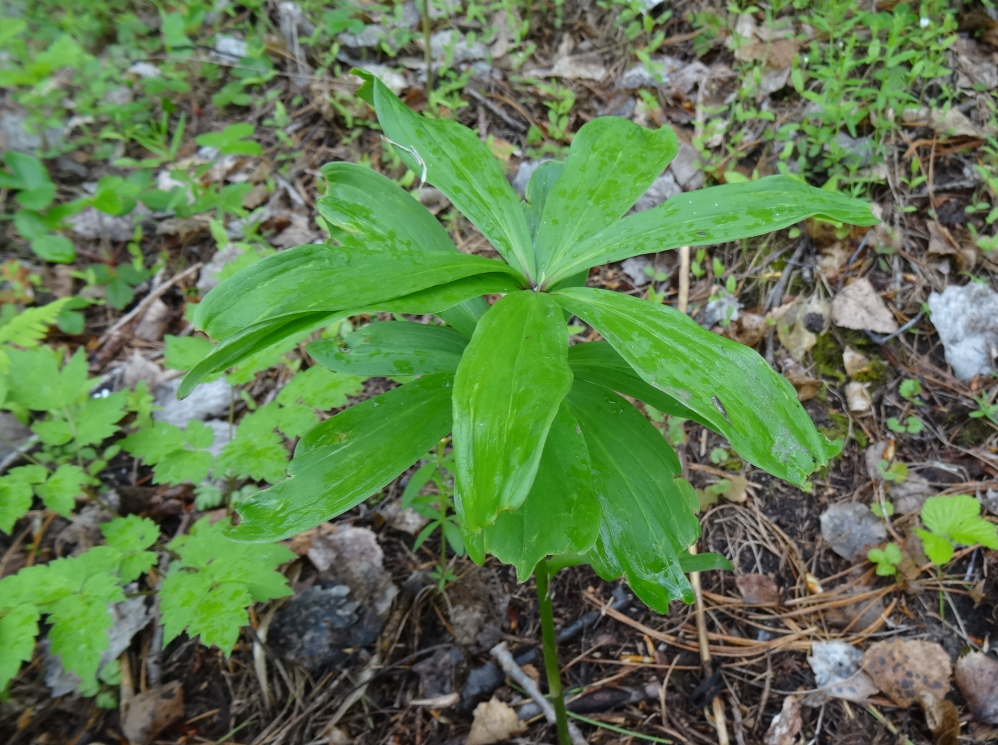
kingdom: Plantae
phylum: Tracheophyta
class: Liliopsida
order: Liliales
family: Liliaceae
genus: Lilium
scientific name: Lilium martagon
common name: Martagon lily
